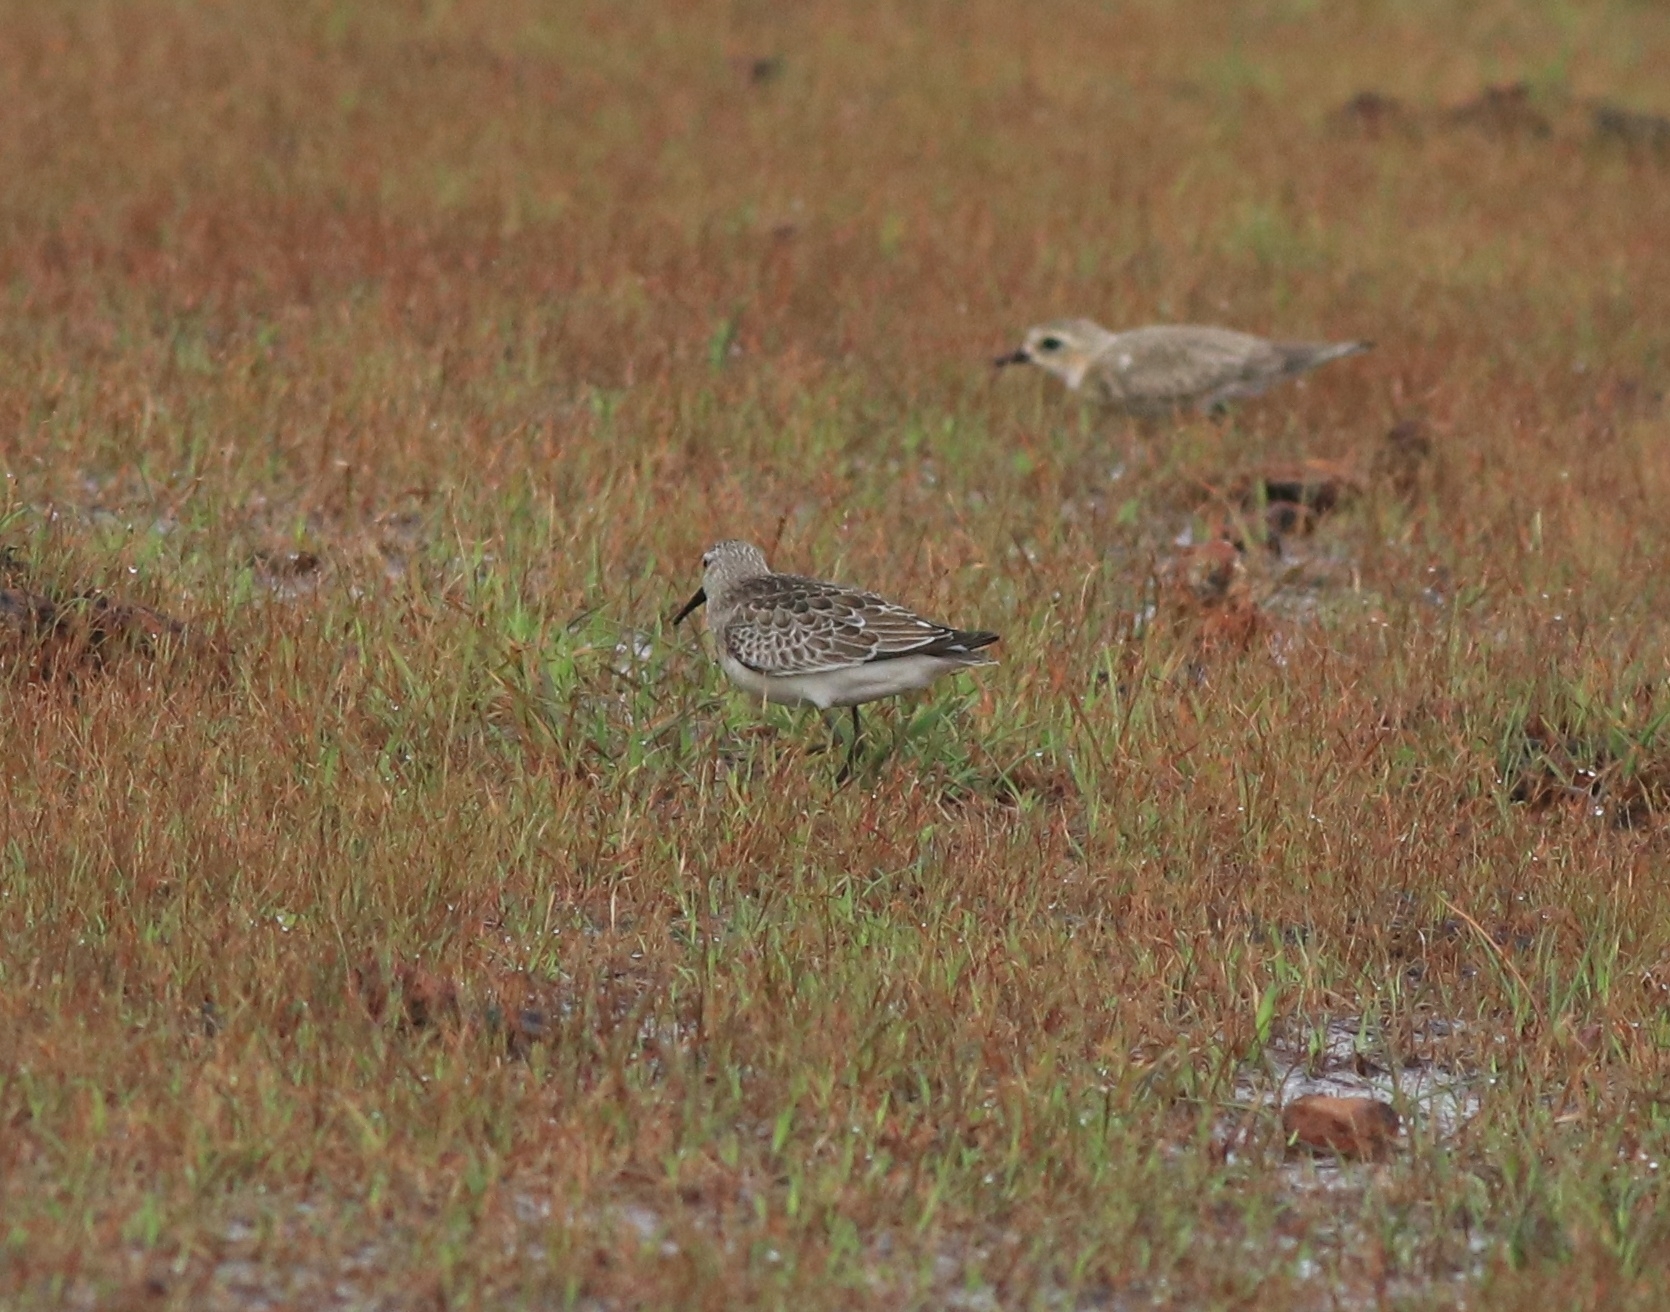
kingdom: Animalia
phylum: Chordata
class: Aves
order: Charadriiformes
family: Scolopacidae
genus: Calidris
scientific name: Calidris ferruginea
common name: Curlew sandpiper
